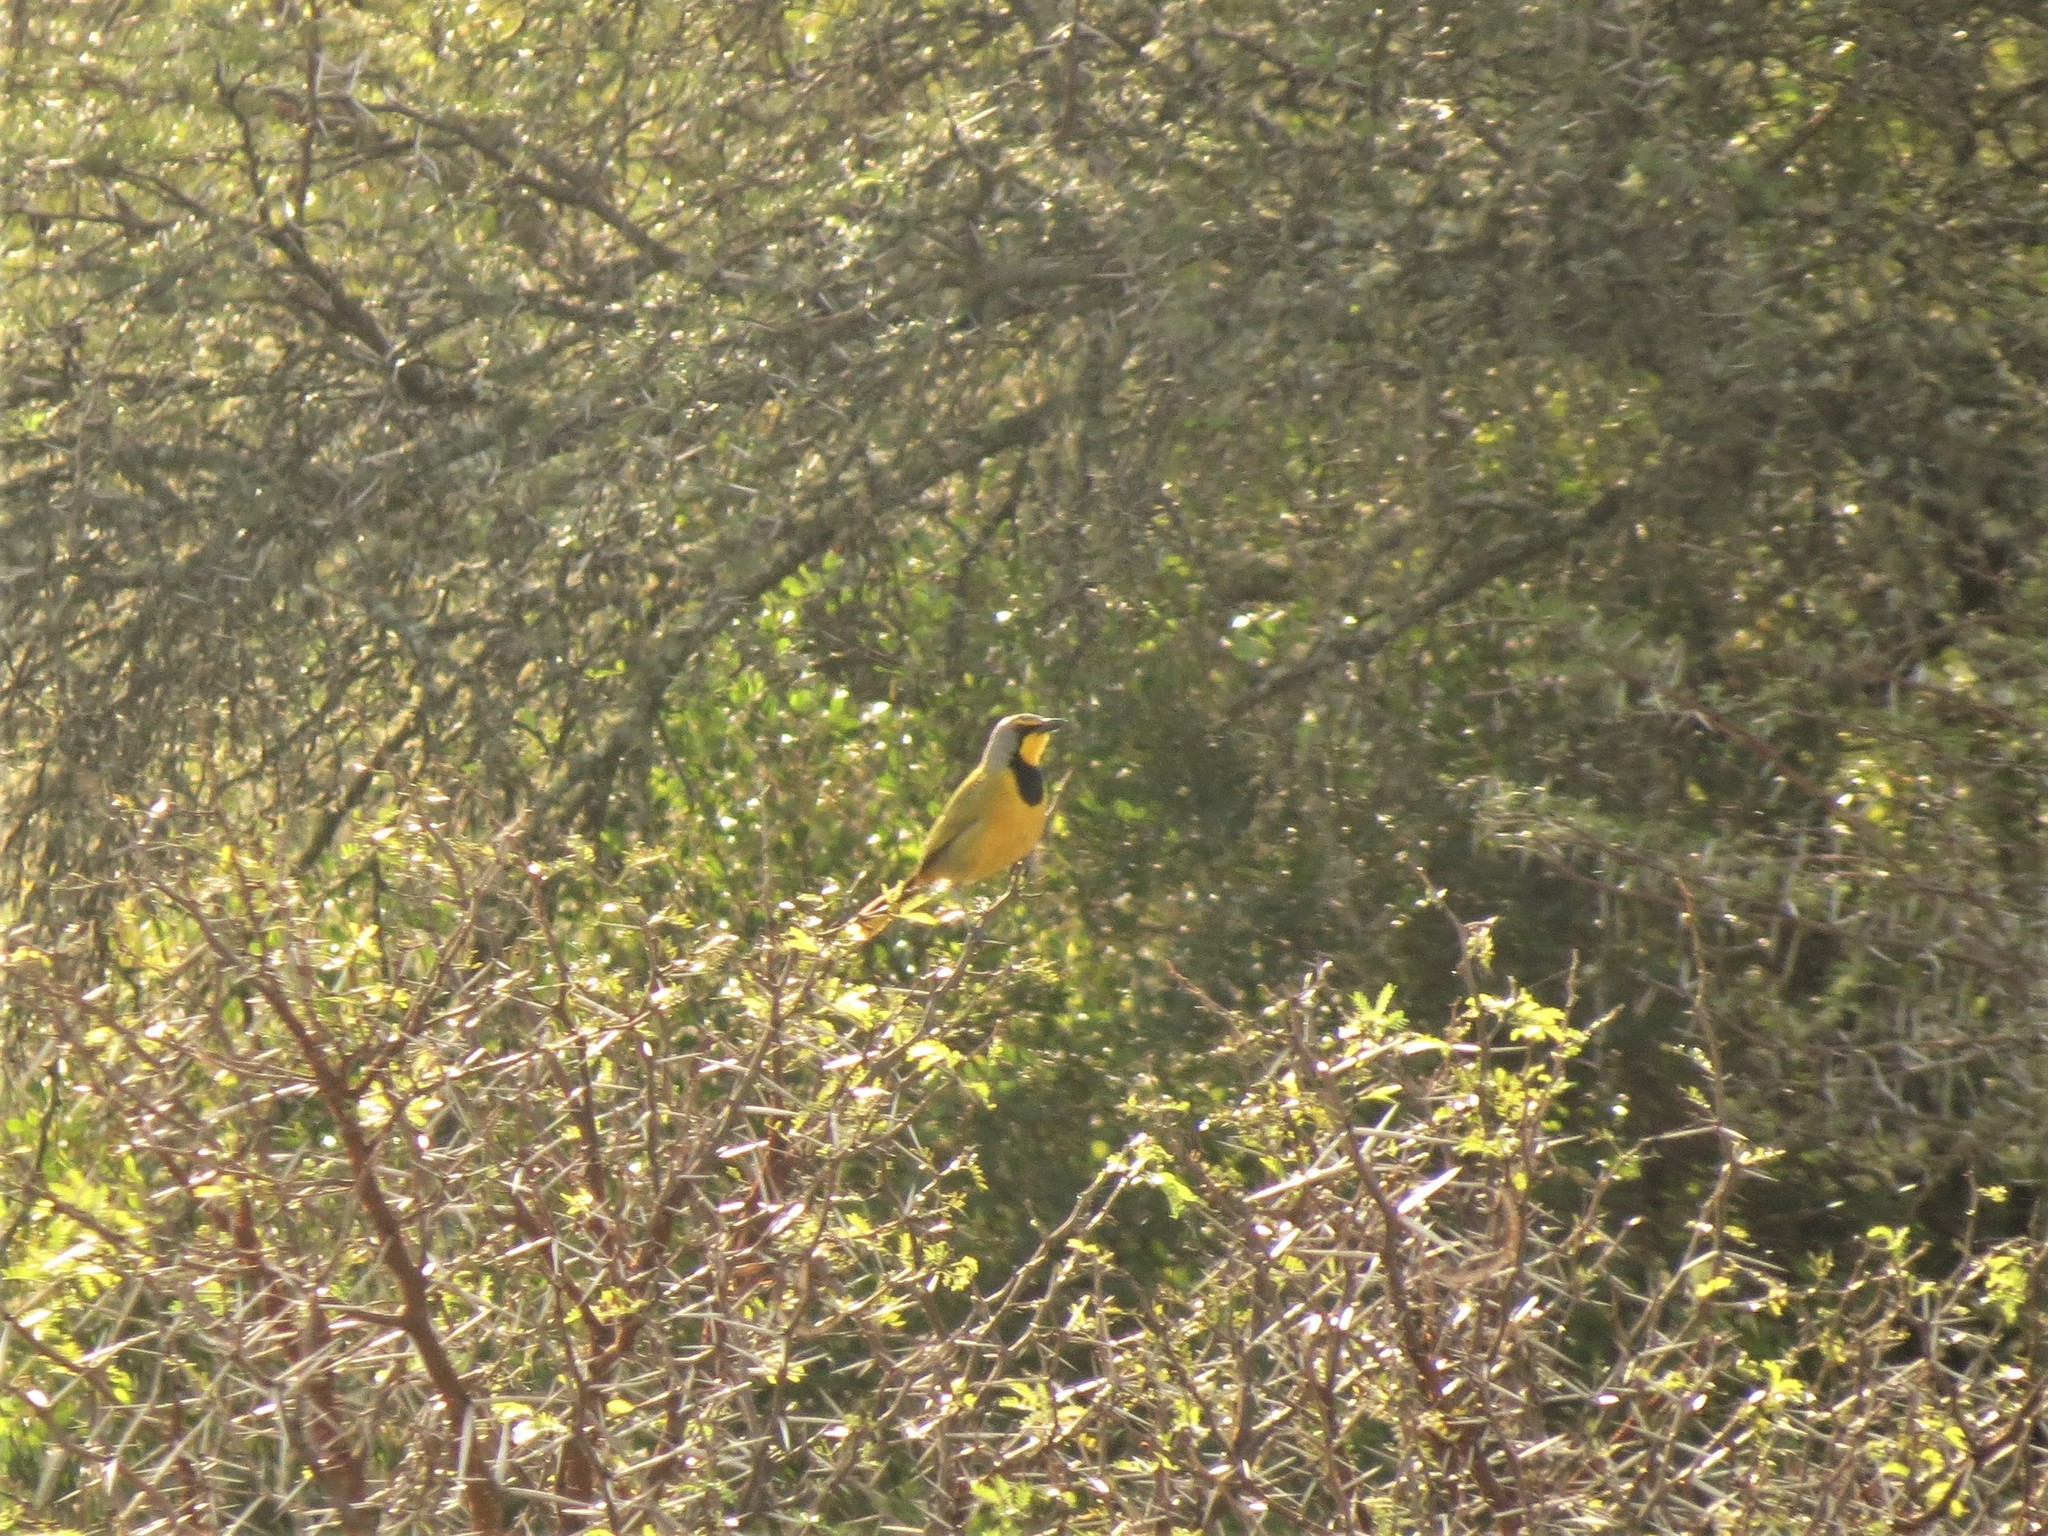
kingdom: Animalia
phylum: Chordata
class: Aves
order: Passeriformes
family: Malaconotidae
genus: Telophorus
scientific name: Telophorus zeylonus
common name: Bokmakierie
